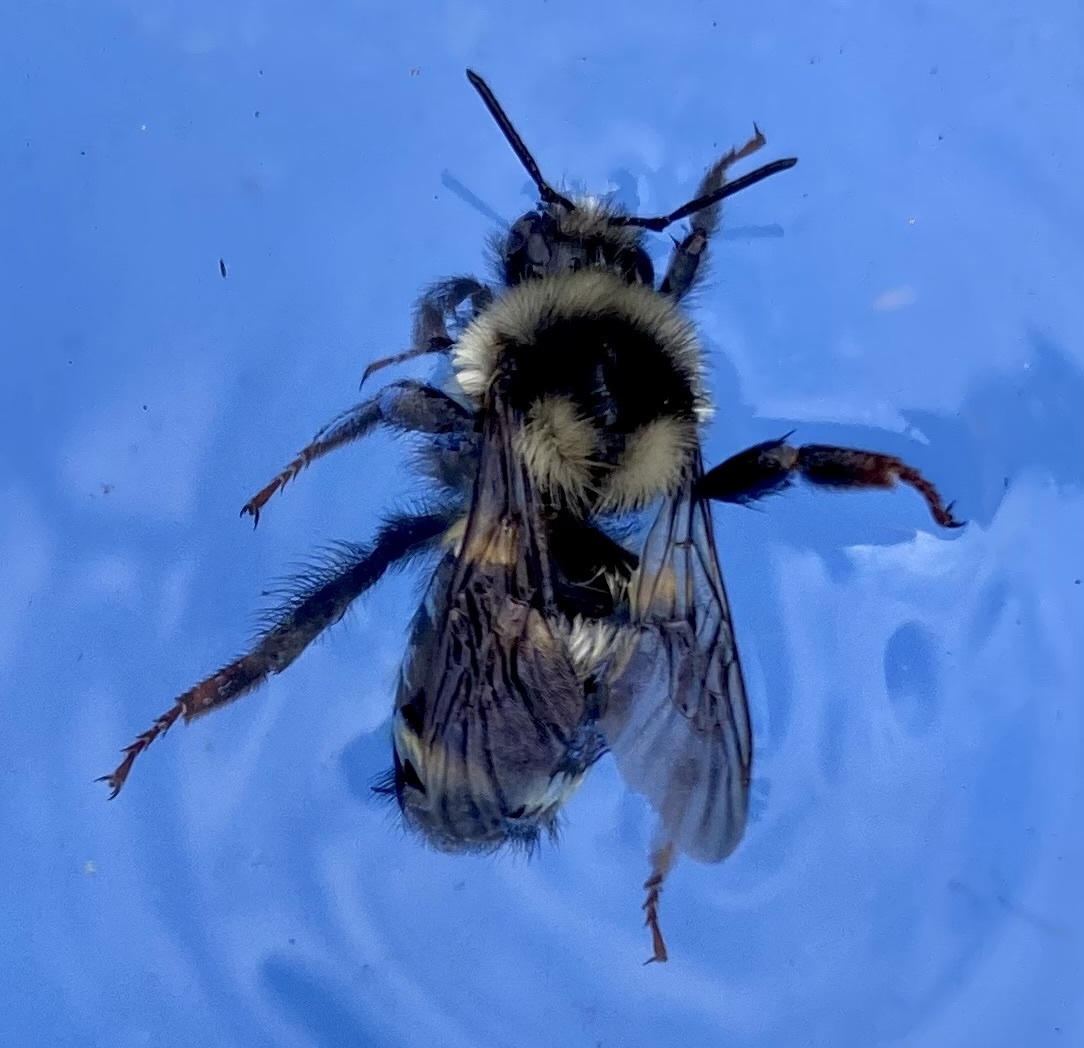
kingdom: Animalia
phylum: Arthropoda
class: Insecta
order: Hymenoptera
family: Apidae
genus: Bombus
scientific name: Bombus vancouverensis
